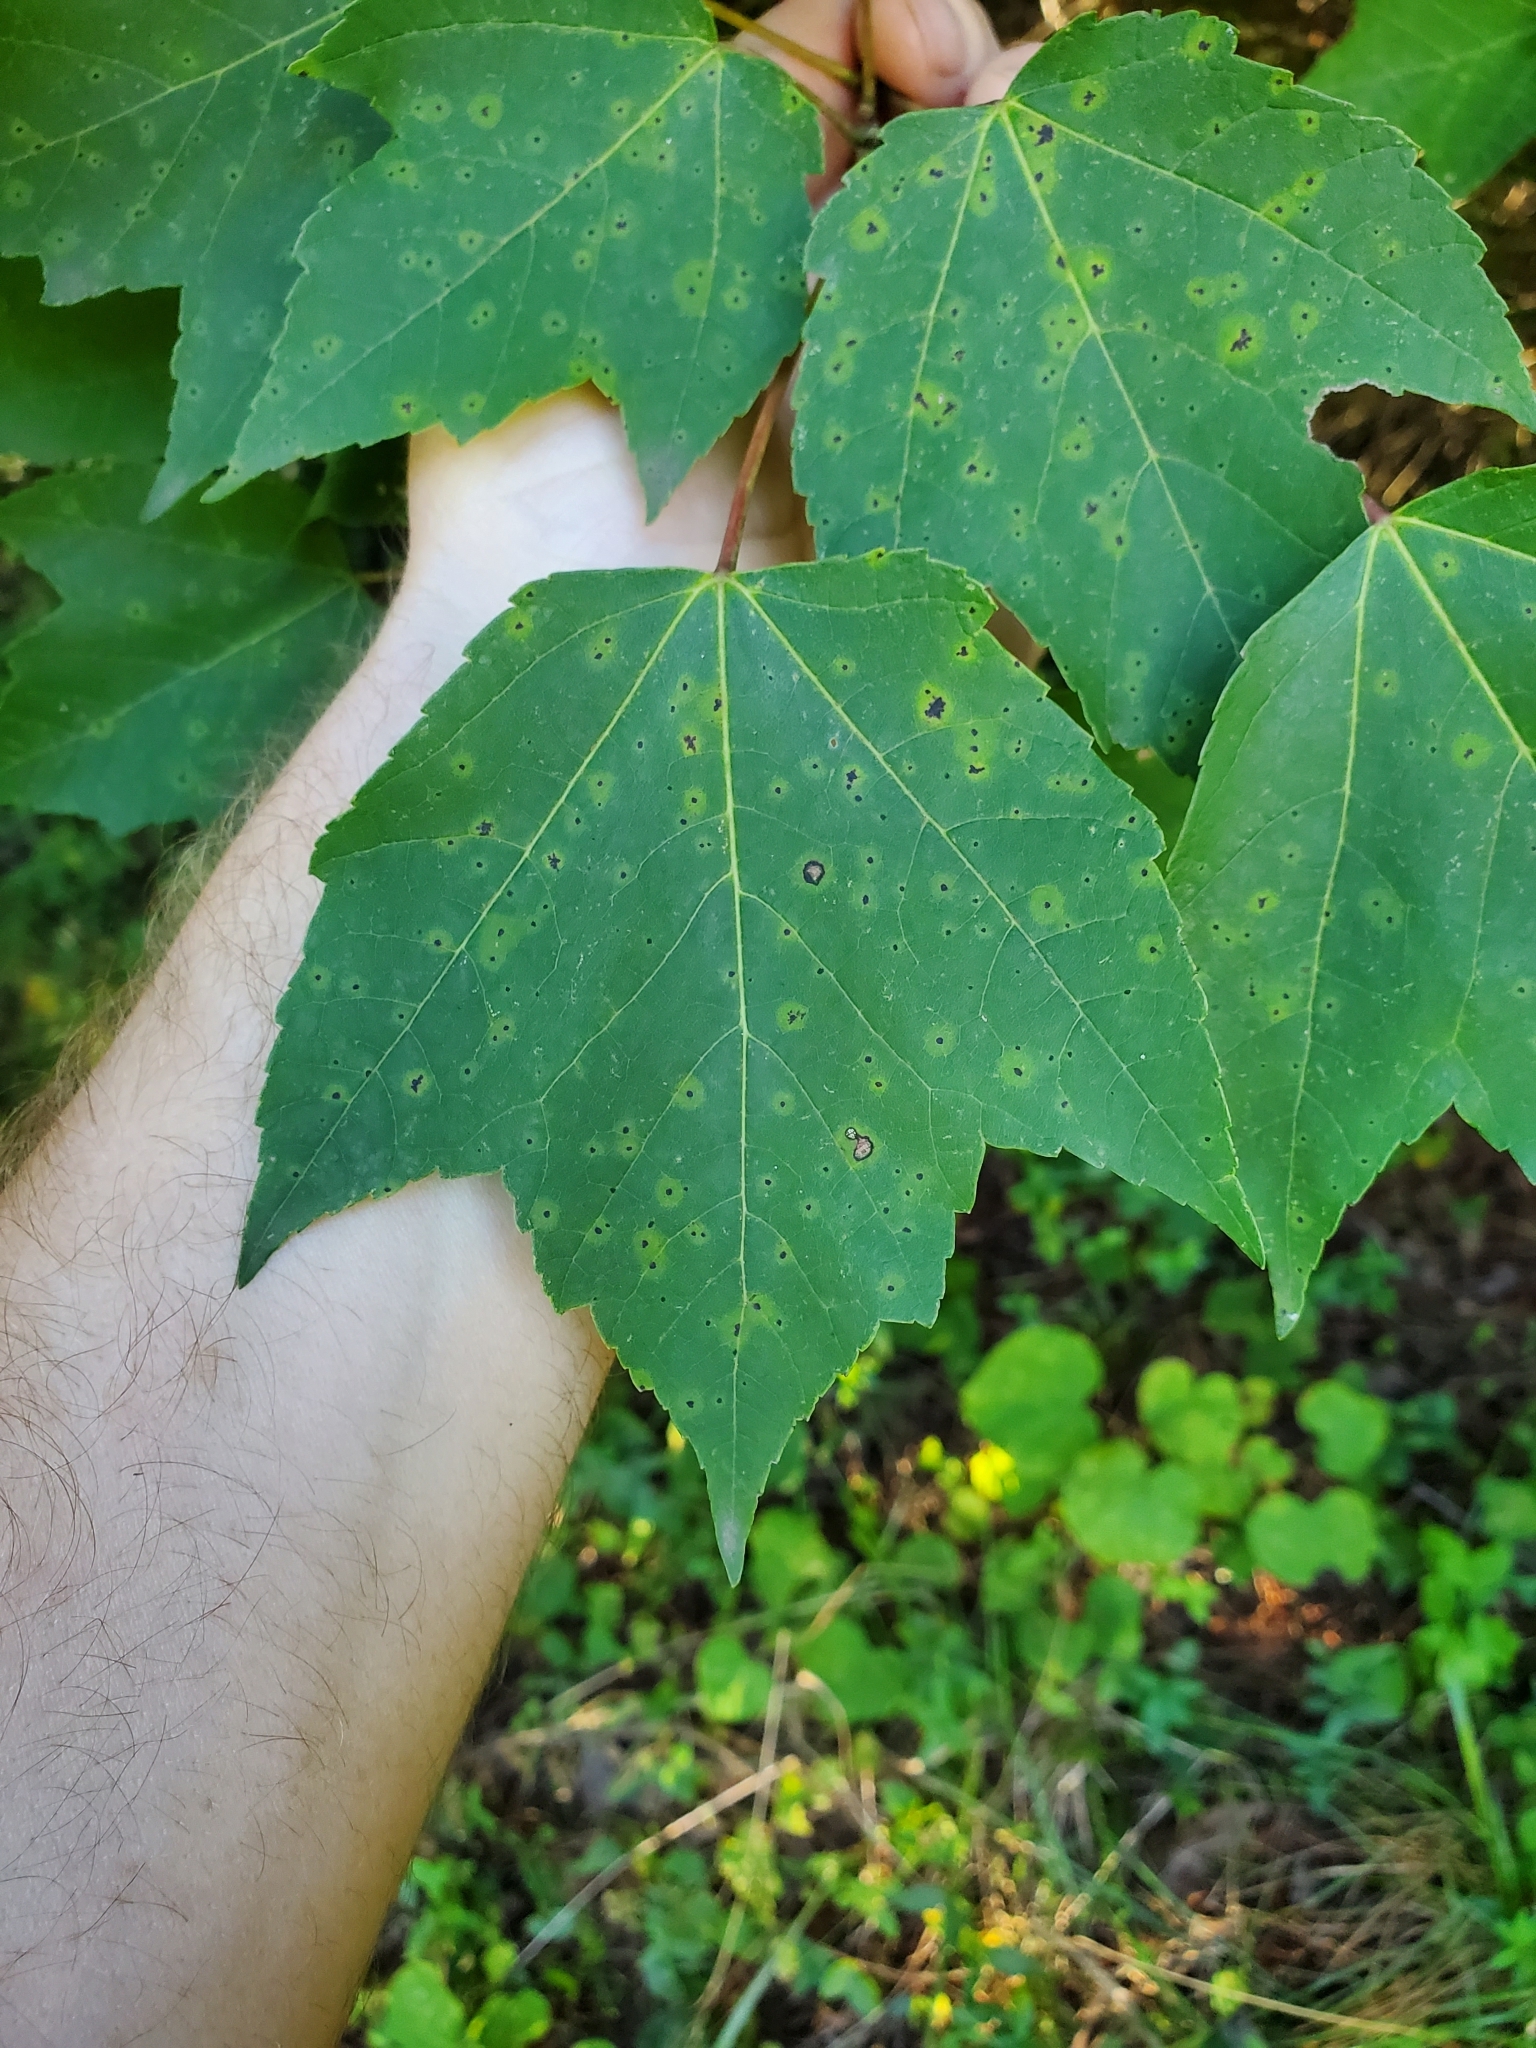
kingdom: Plantae
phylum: Tracheophyta
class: Magnoliopsida
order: Sapindales
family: Sapindaceae
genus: Acer
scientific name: Acer rubrum
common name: Red maple
